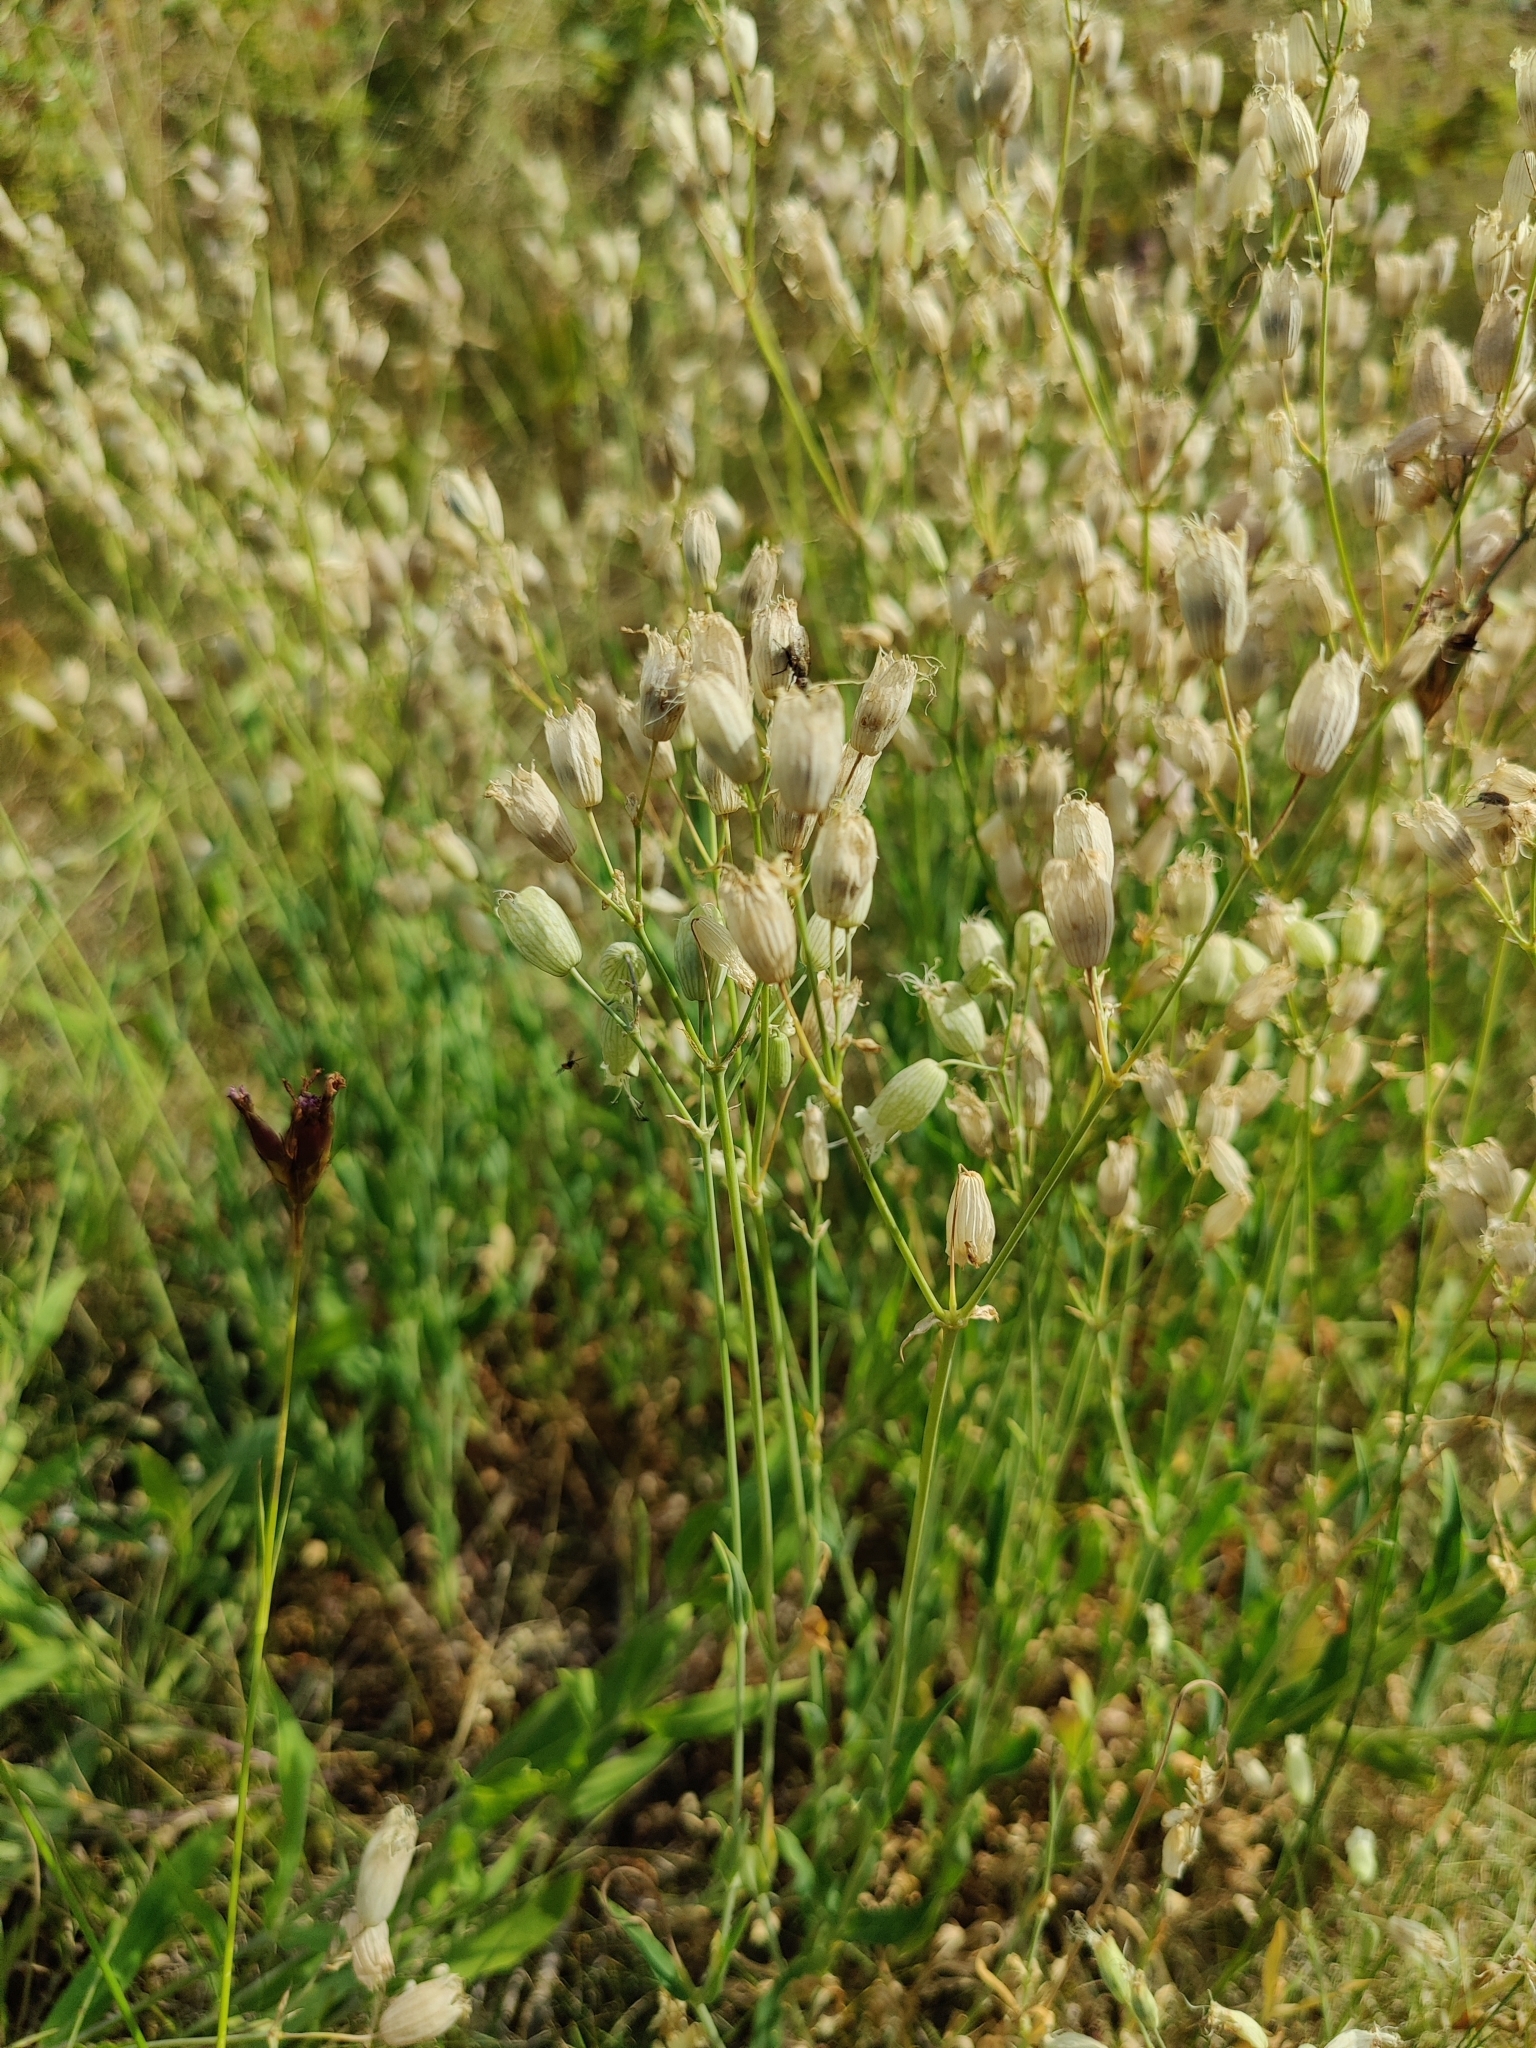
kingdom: Plantae
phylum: Tracheophyta
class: Magnoliopsida
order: Caryophyllales
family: Caryophyllaceae
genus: Silene
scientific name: Silene vulgaris
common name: Bladder campion
